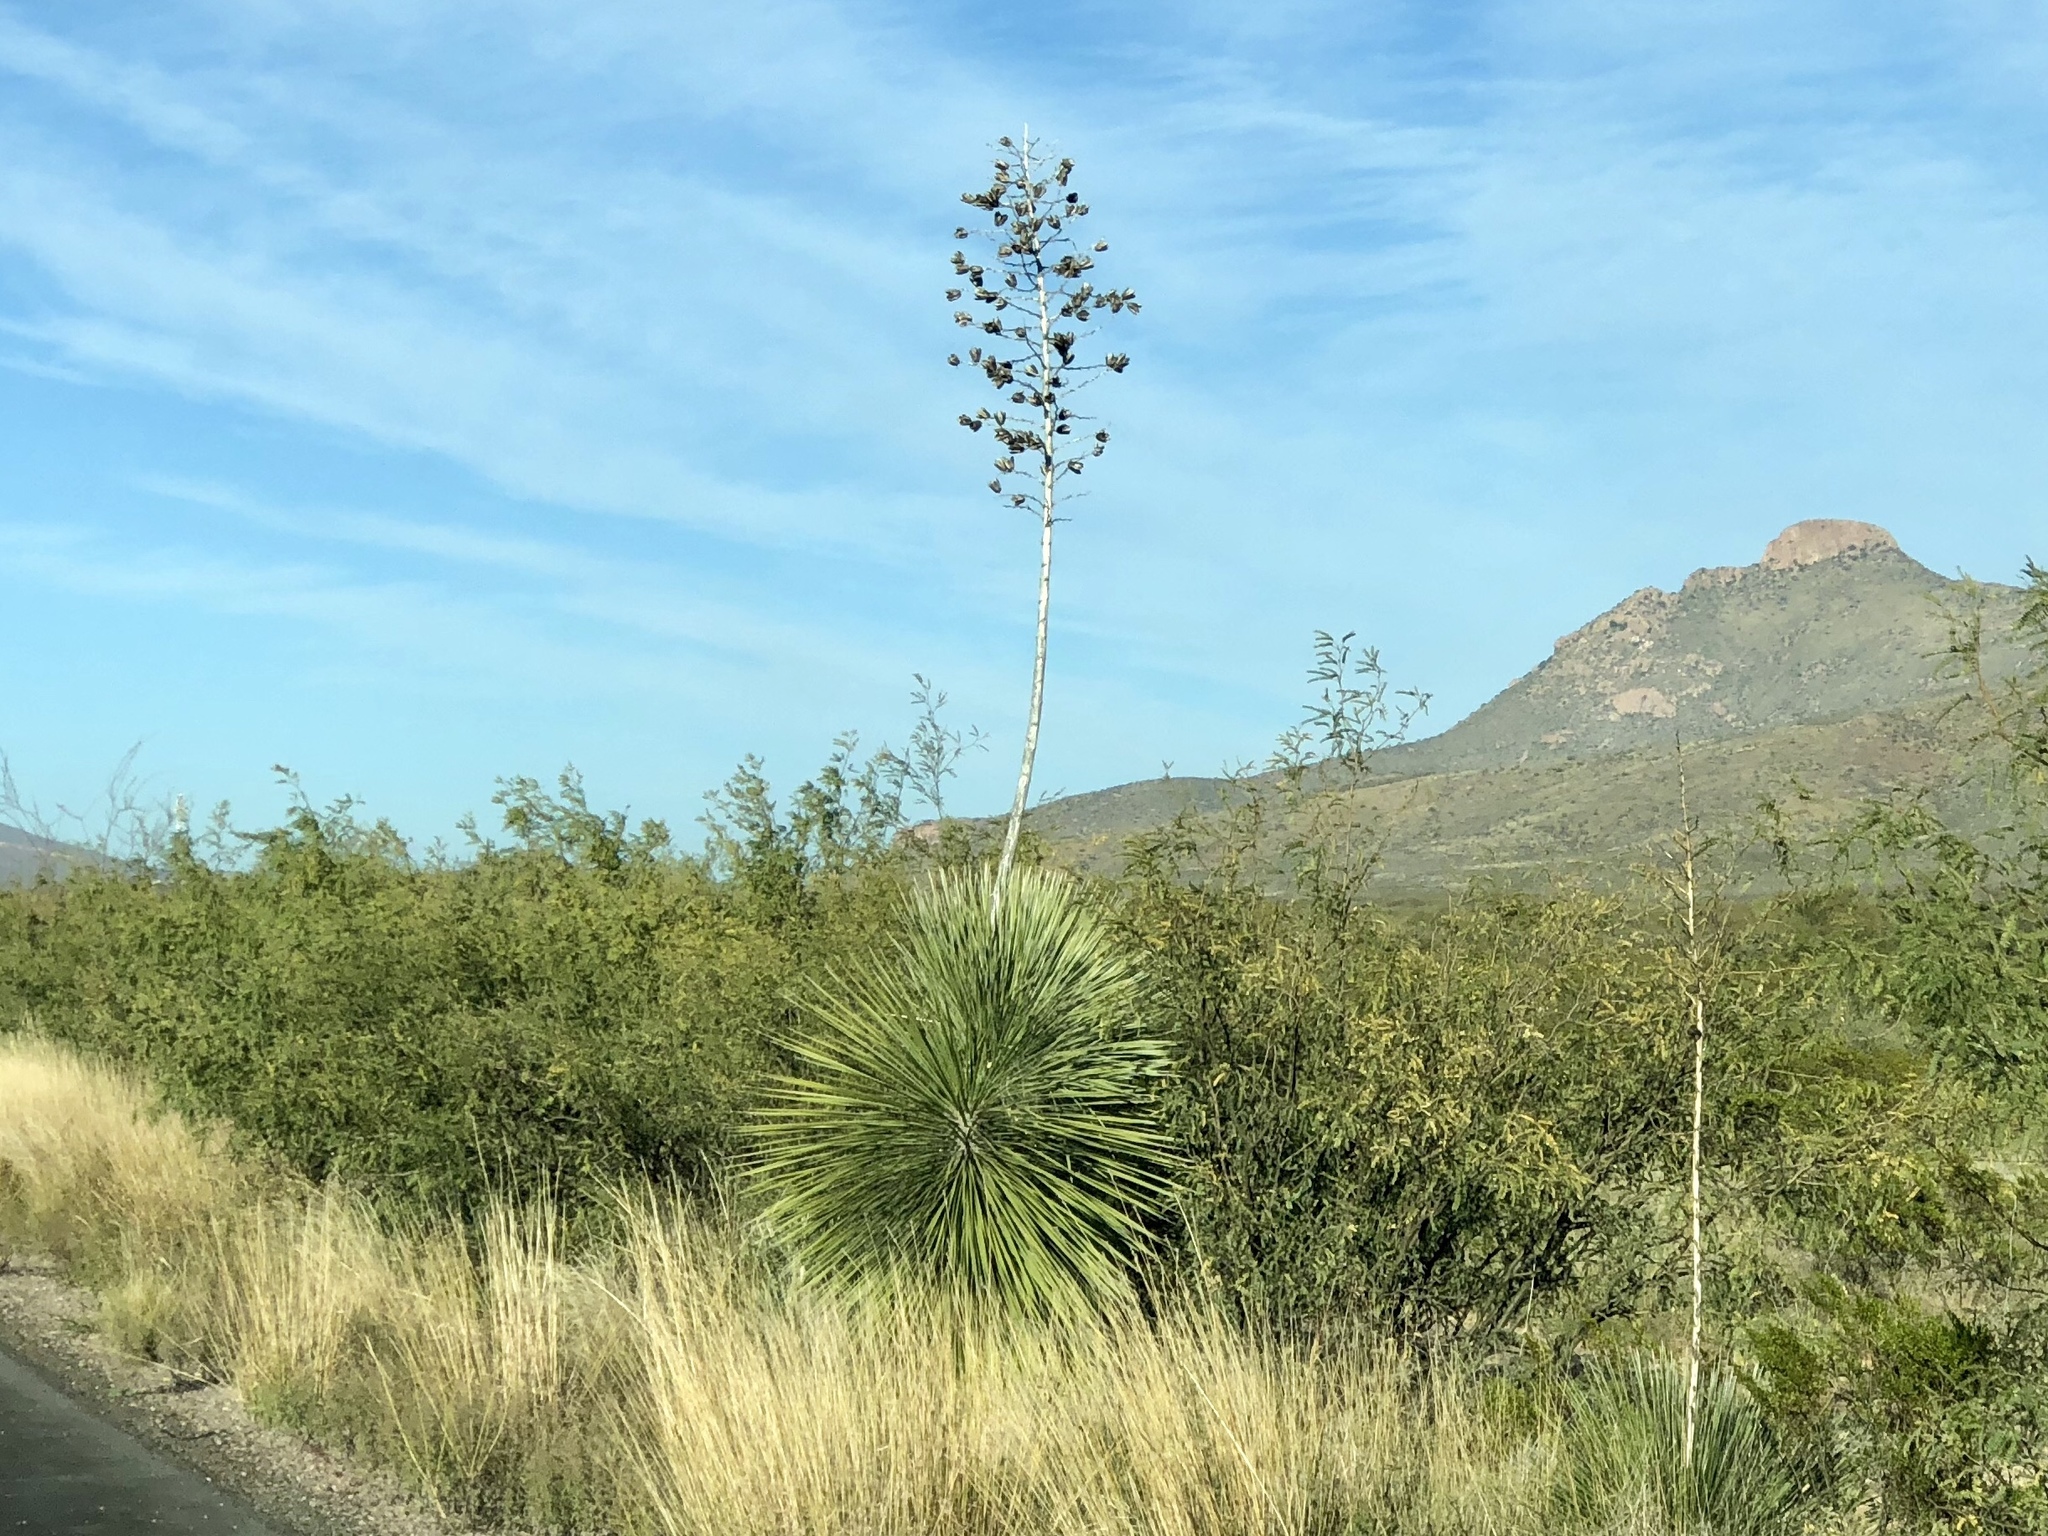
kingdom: Plantae
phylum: Tracheophyta
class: Liliopsida
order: Asparagales
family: Asparagaceae
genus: Yucca
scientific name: Yucca elata
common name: Palmella
